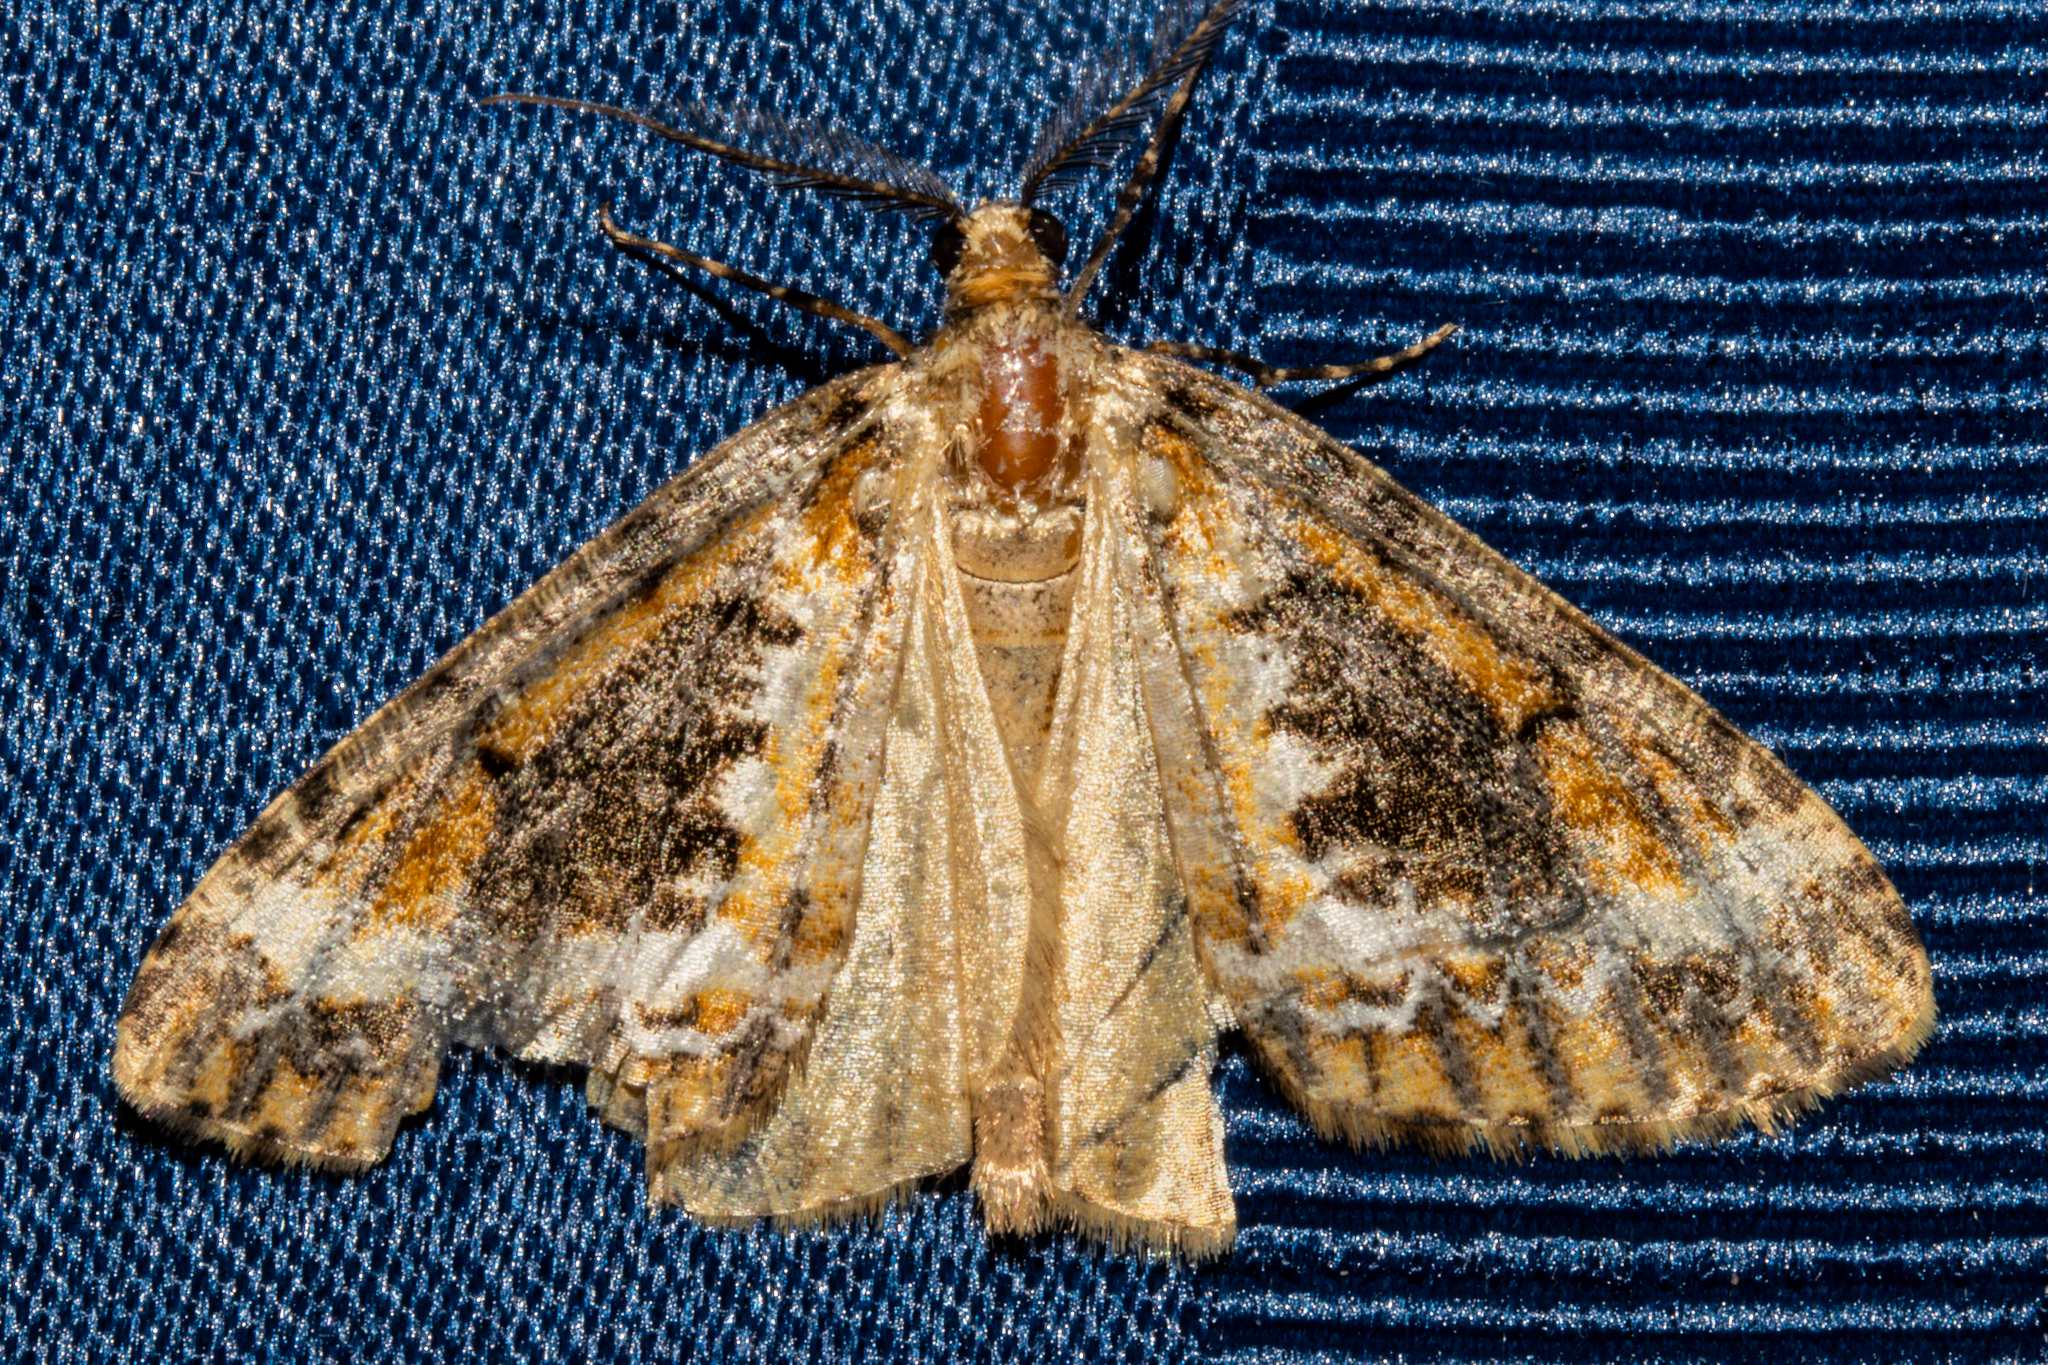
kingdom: Animalia
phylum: Arthropoda
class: Insecta
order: Lepidoptera
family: Geometridae
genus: Pseudocoremia
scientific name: Pseudocoremia leucelaea
